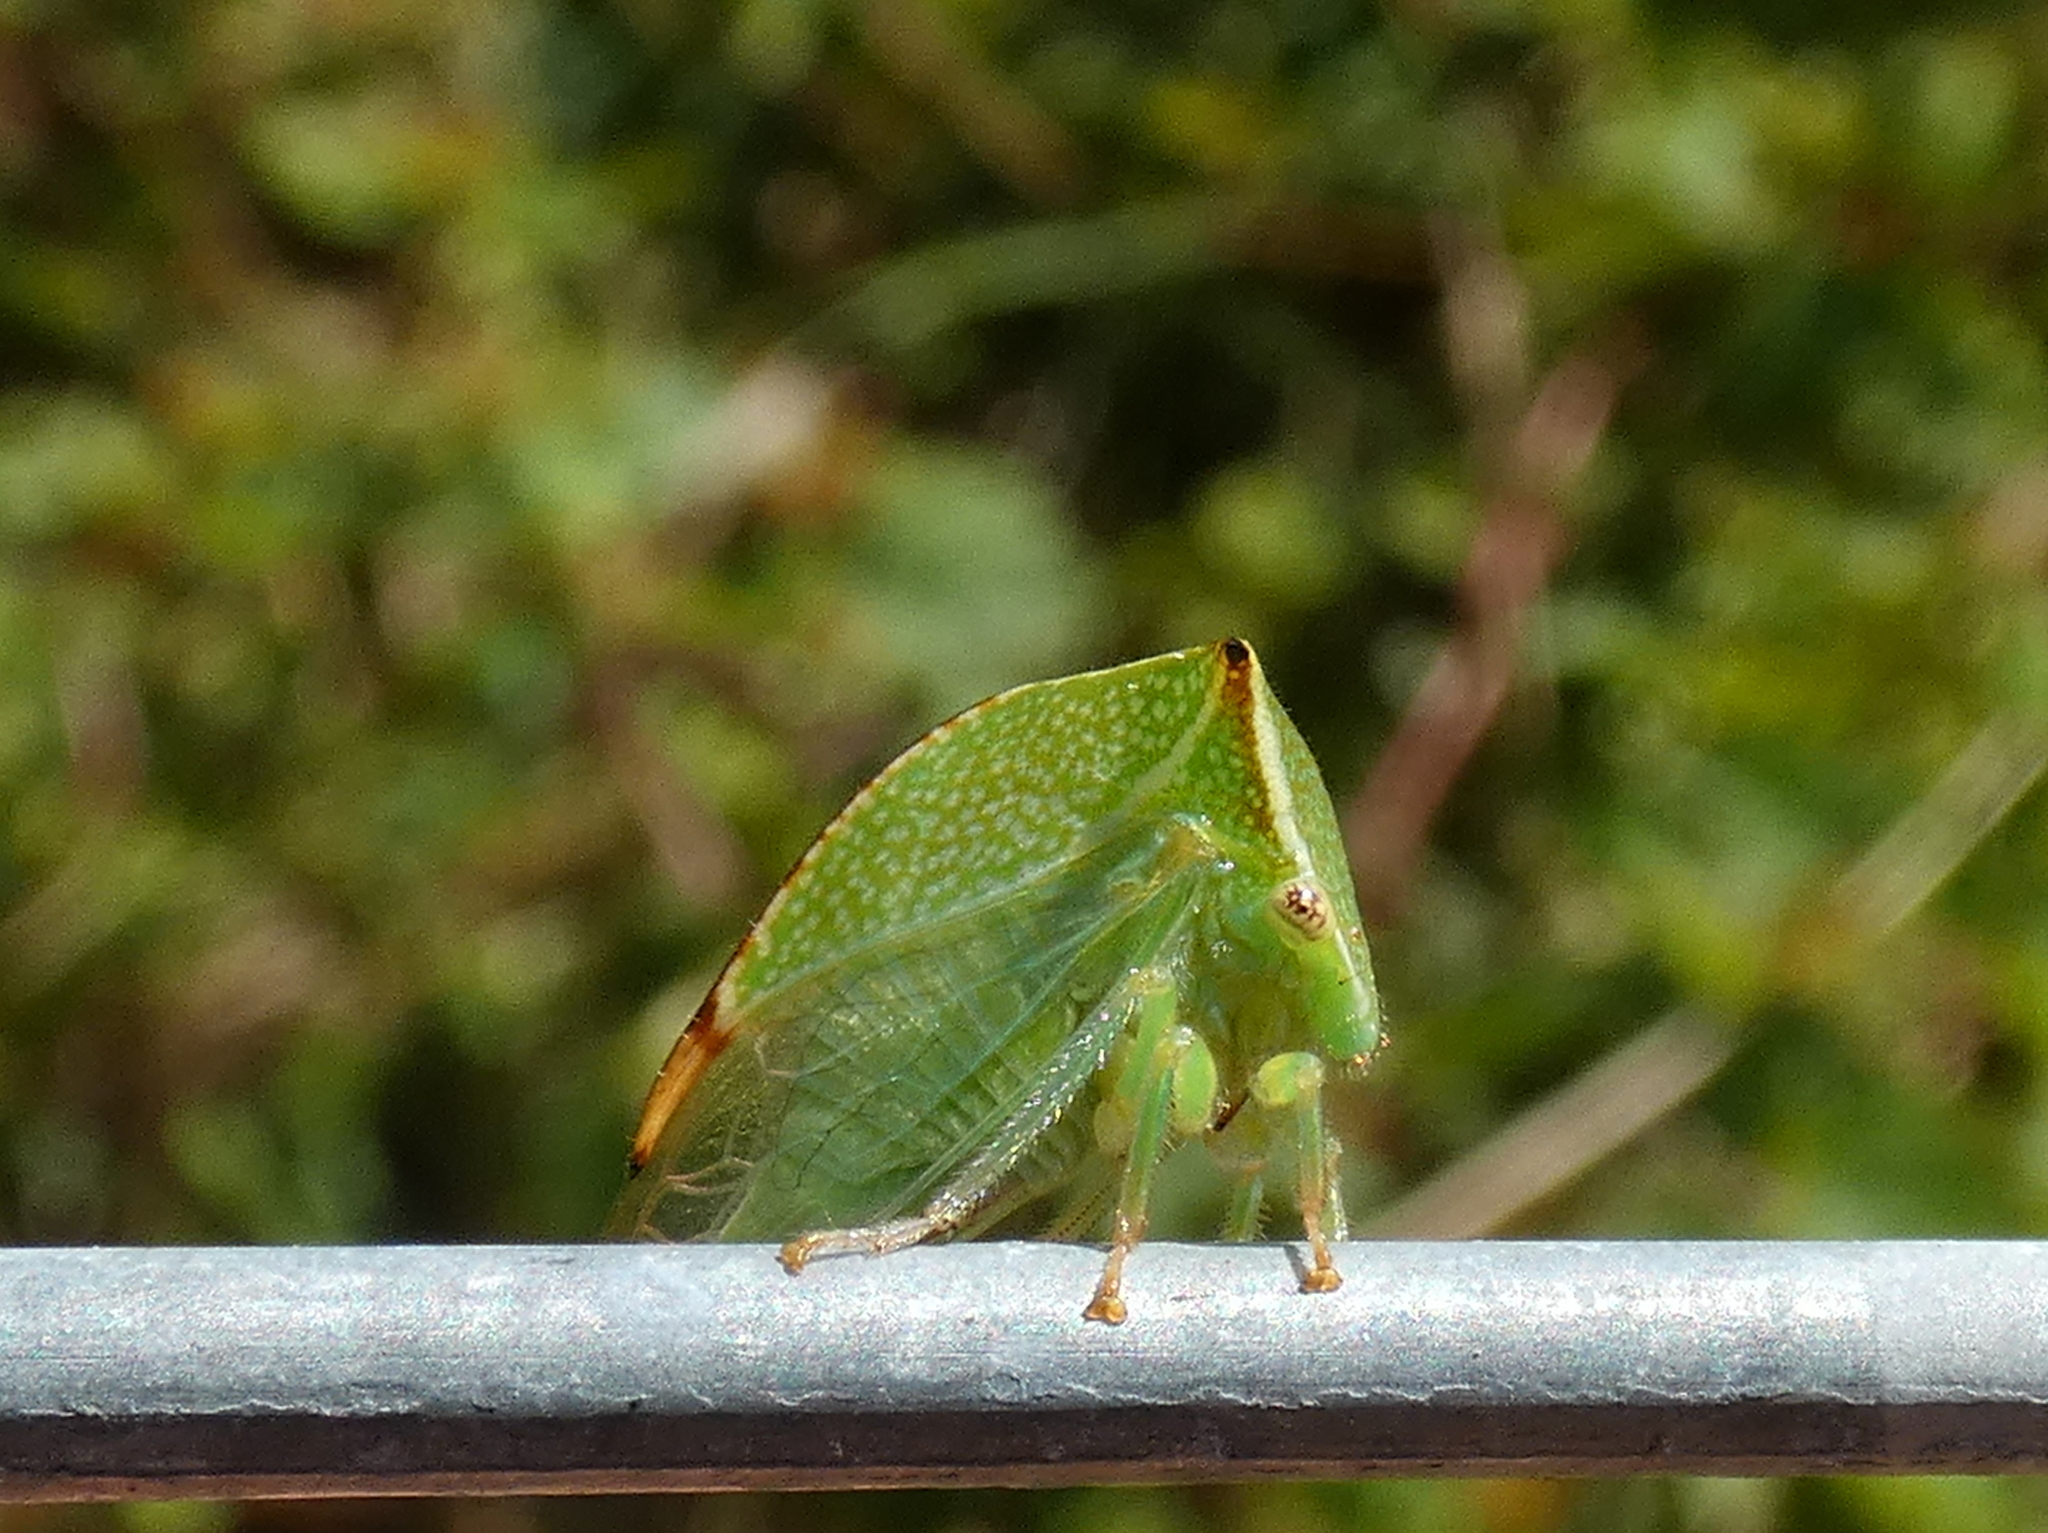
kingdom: Animalia
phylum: Arthropoda
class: Insecta
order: Hemiptera
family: Membracidae
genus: Stictocephala
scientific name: Stictocephala bisonia
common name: American buffalo treehopper
